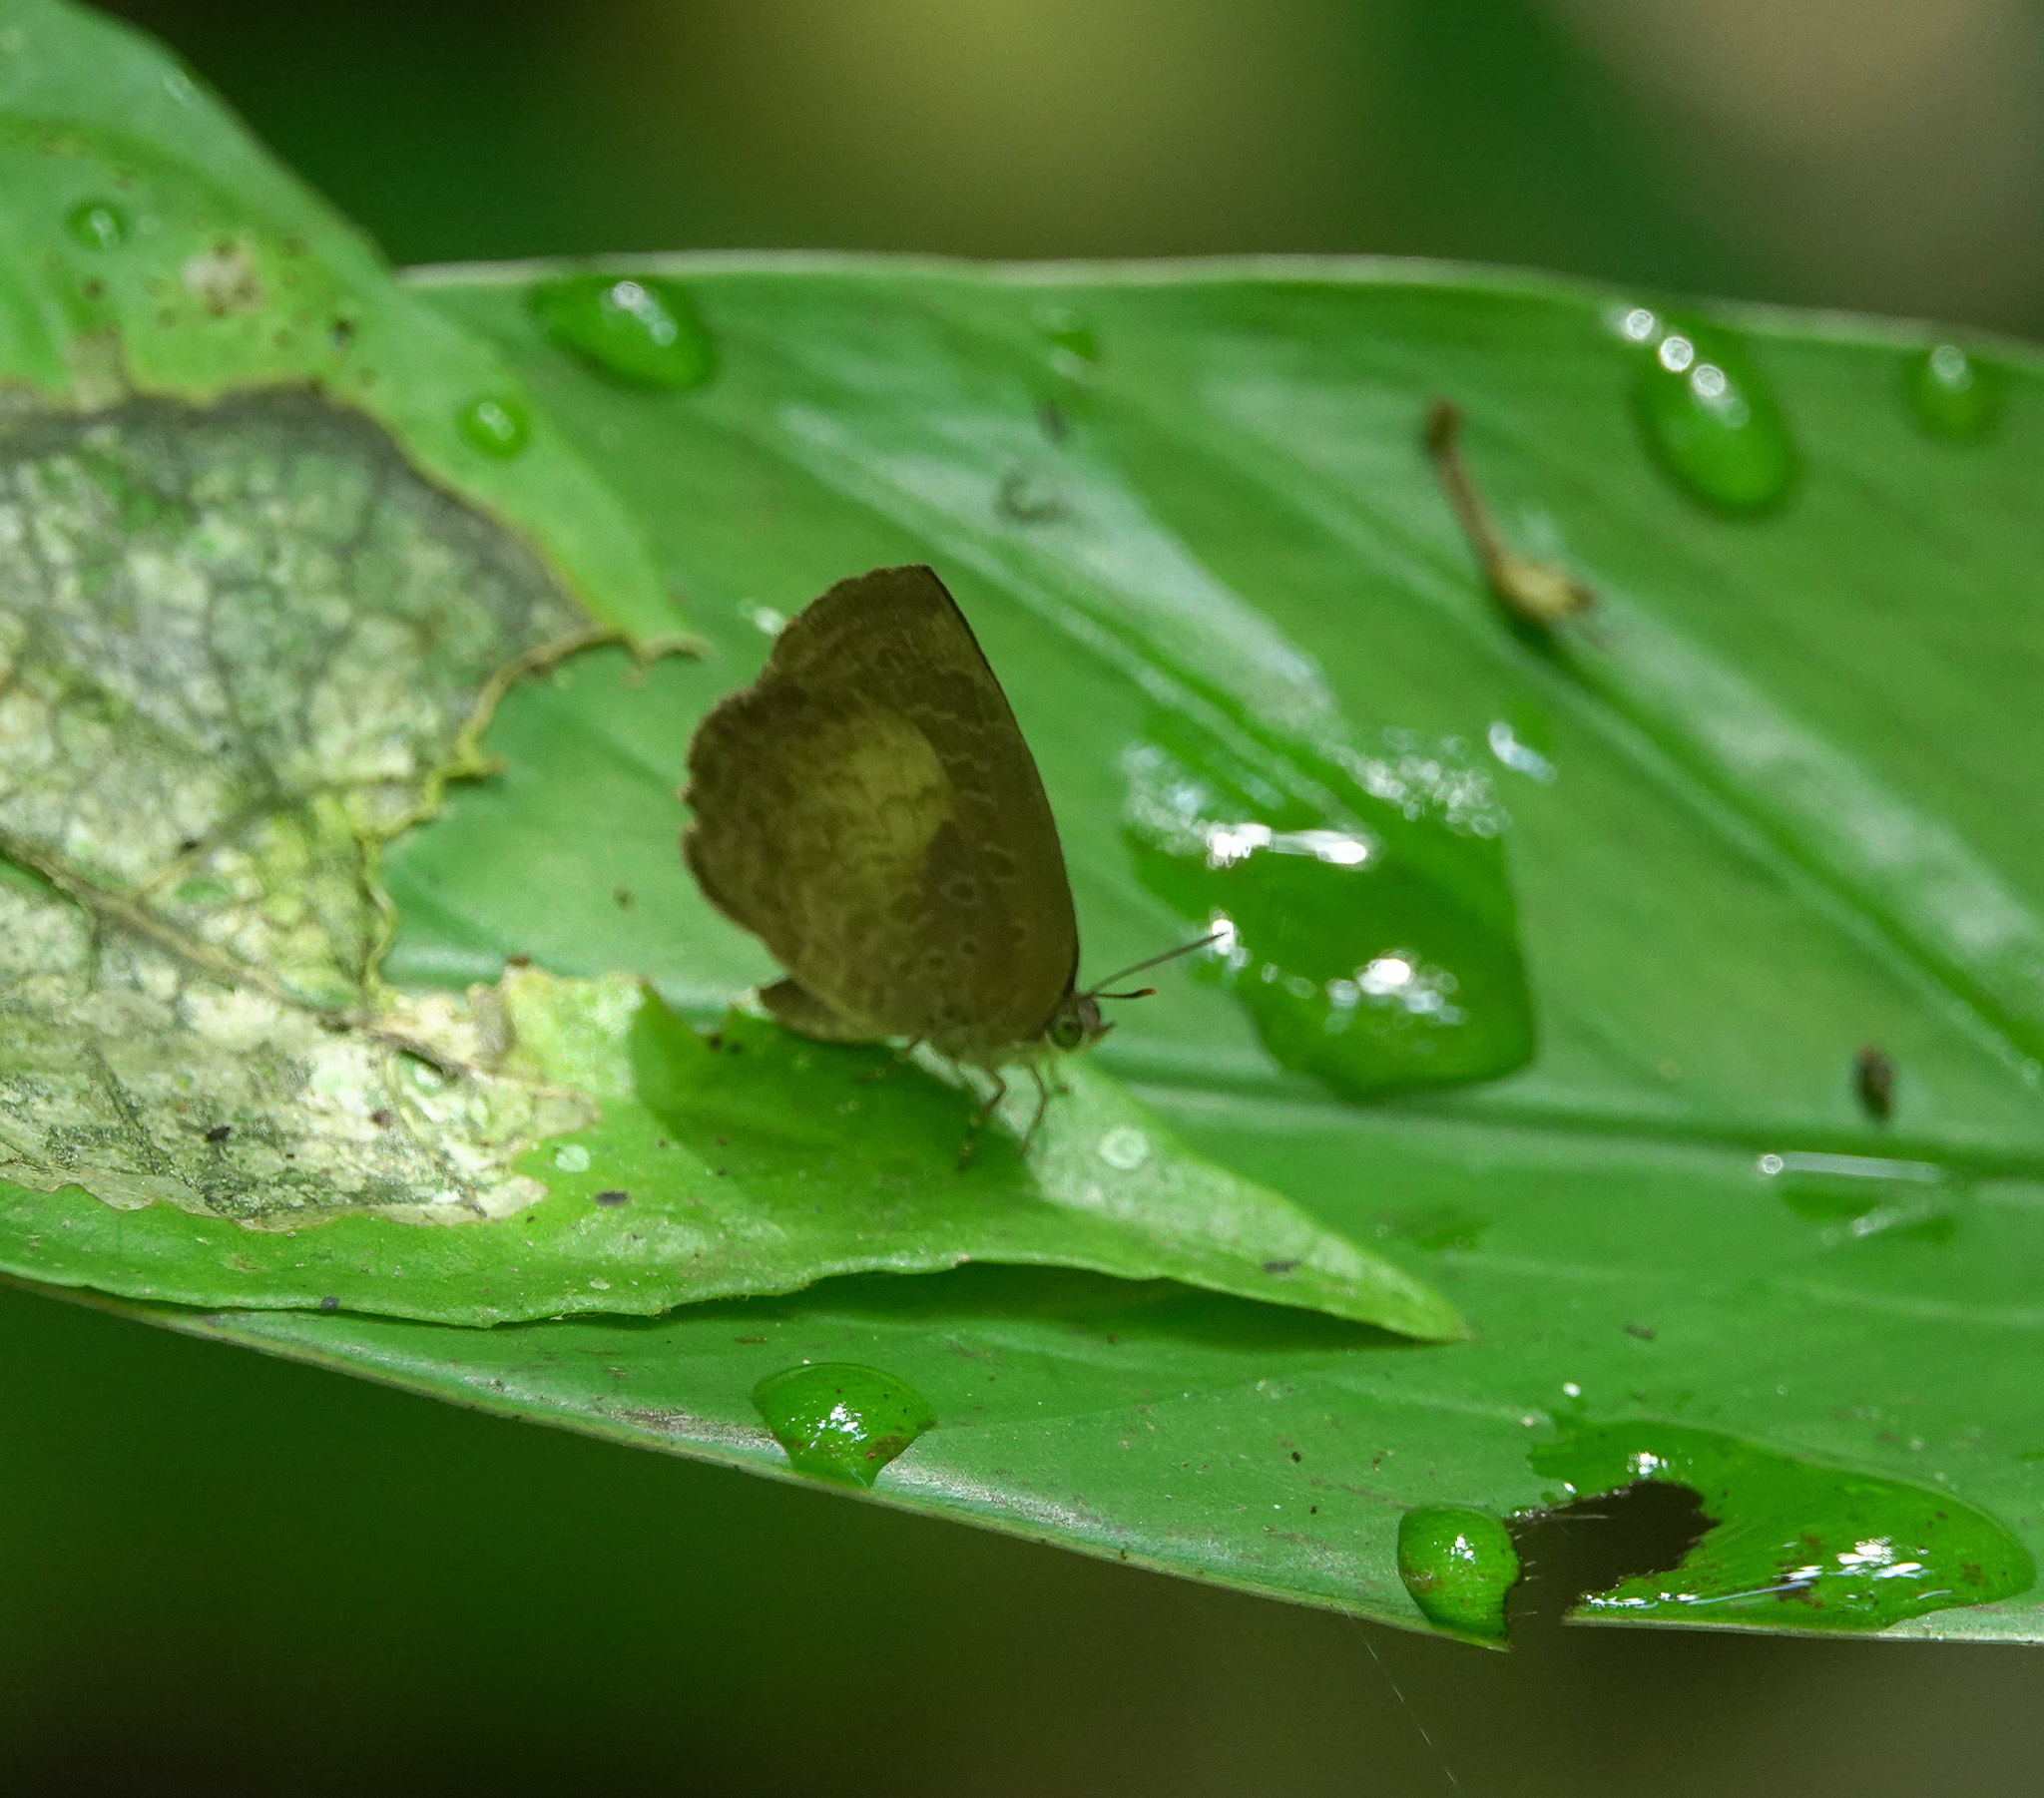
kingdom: Animalia
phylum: Arthropoda
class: Insecta
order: Lepidoptera
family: Lycaenidae
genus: Arhopala
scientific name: Arhopala perimuta
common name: Yellowdisc oakblue
